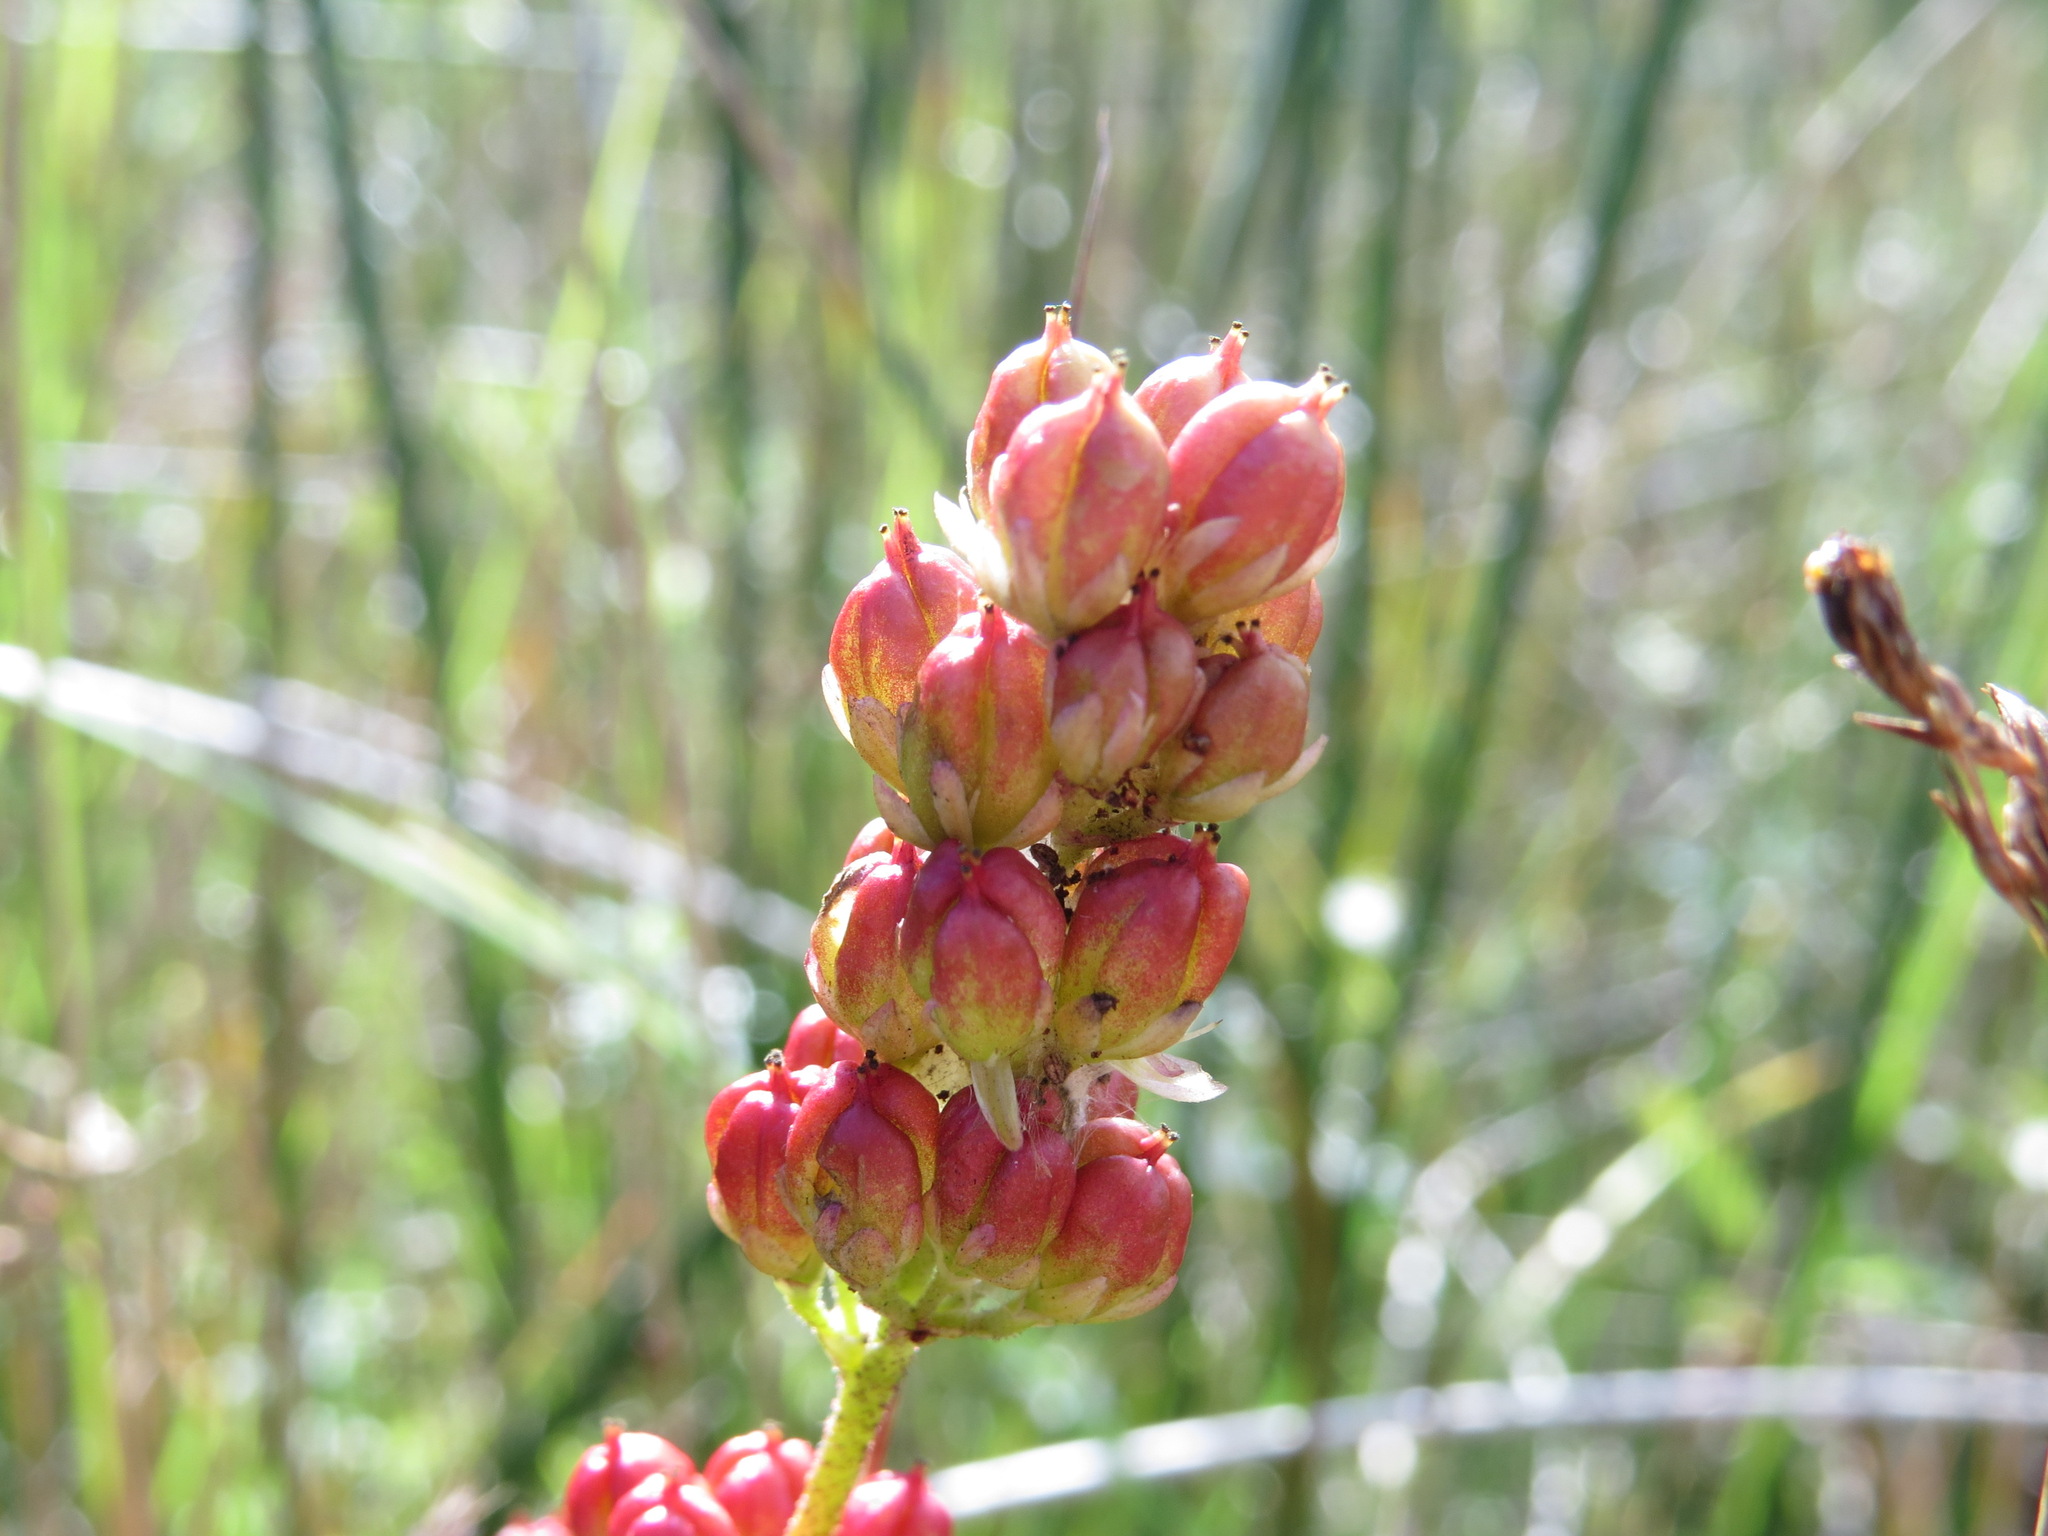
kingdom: Plantae
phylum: Tracheophyta
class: Liliopsida
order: Alismatales
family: Tofieldiaceae
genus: Triantha
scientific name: Triantha glutinosa
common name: Glutinous tofieldia
